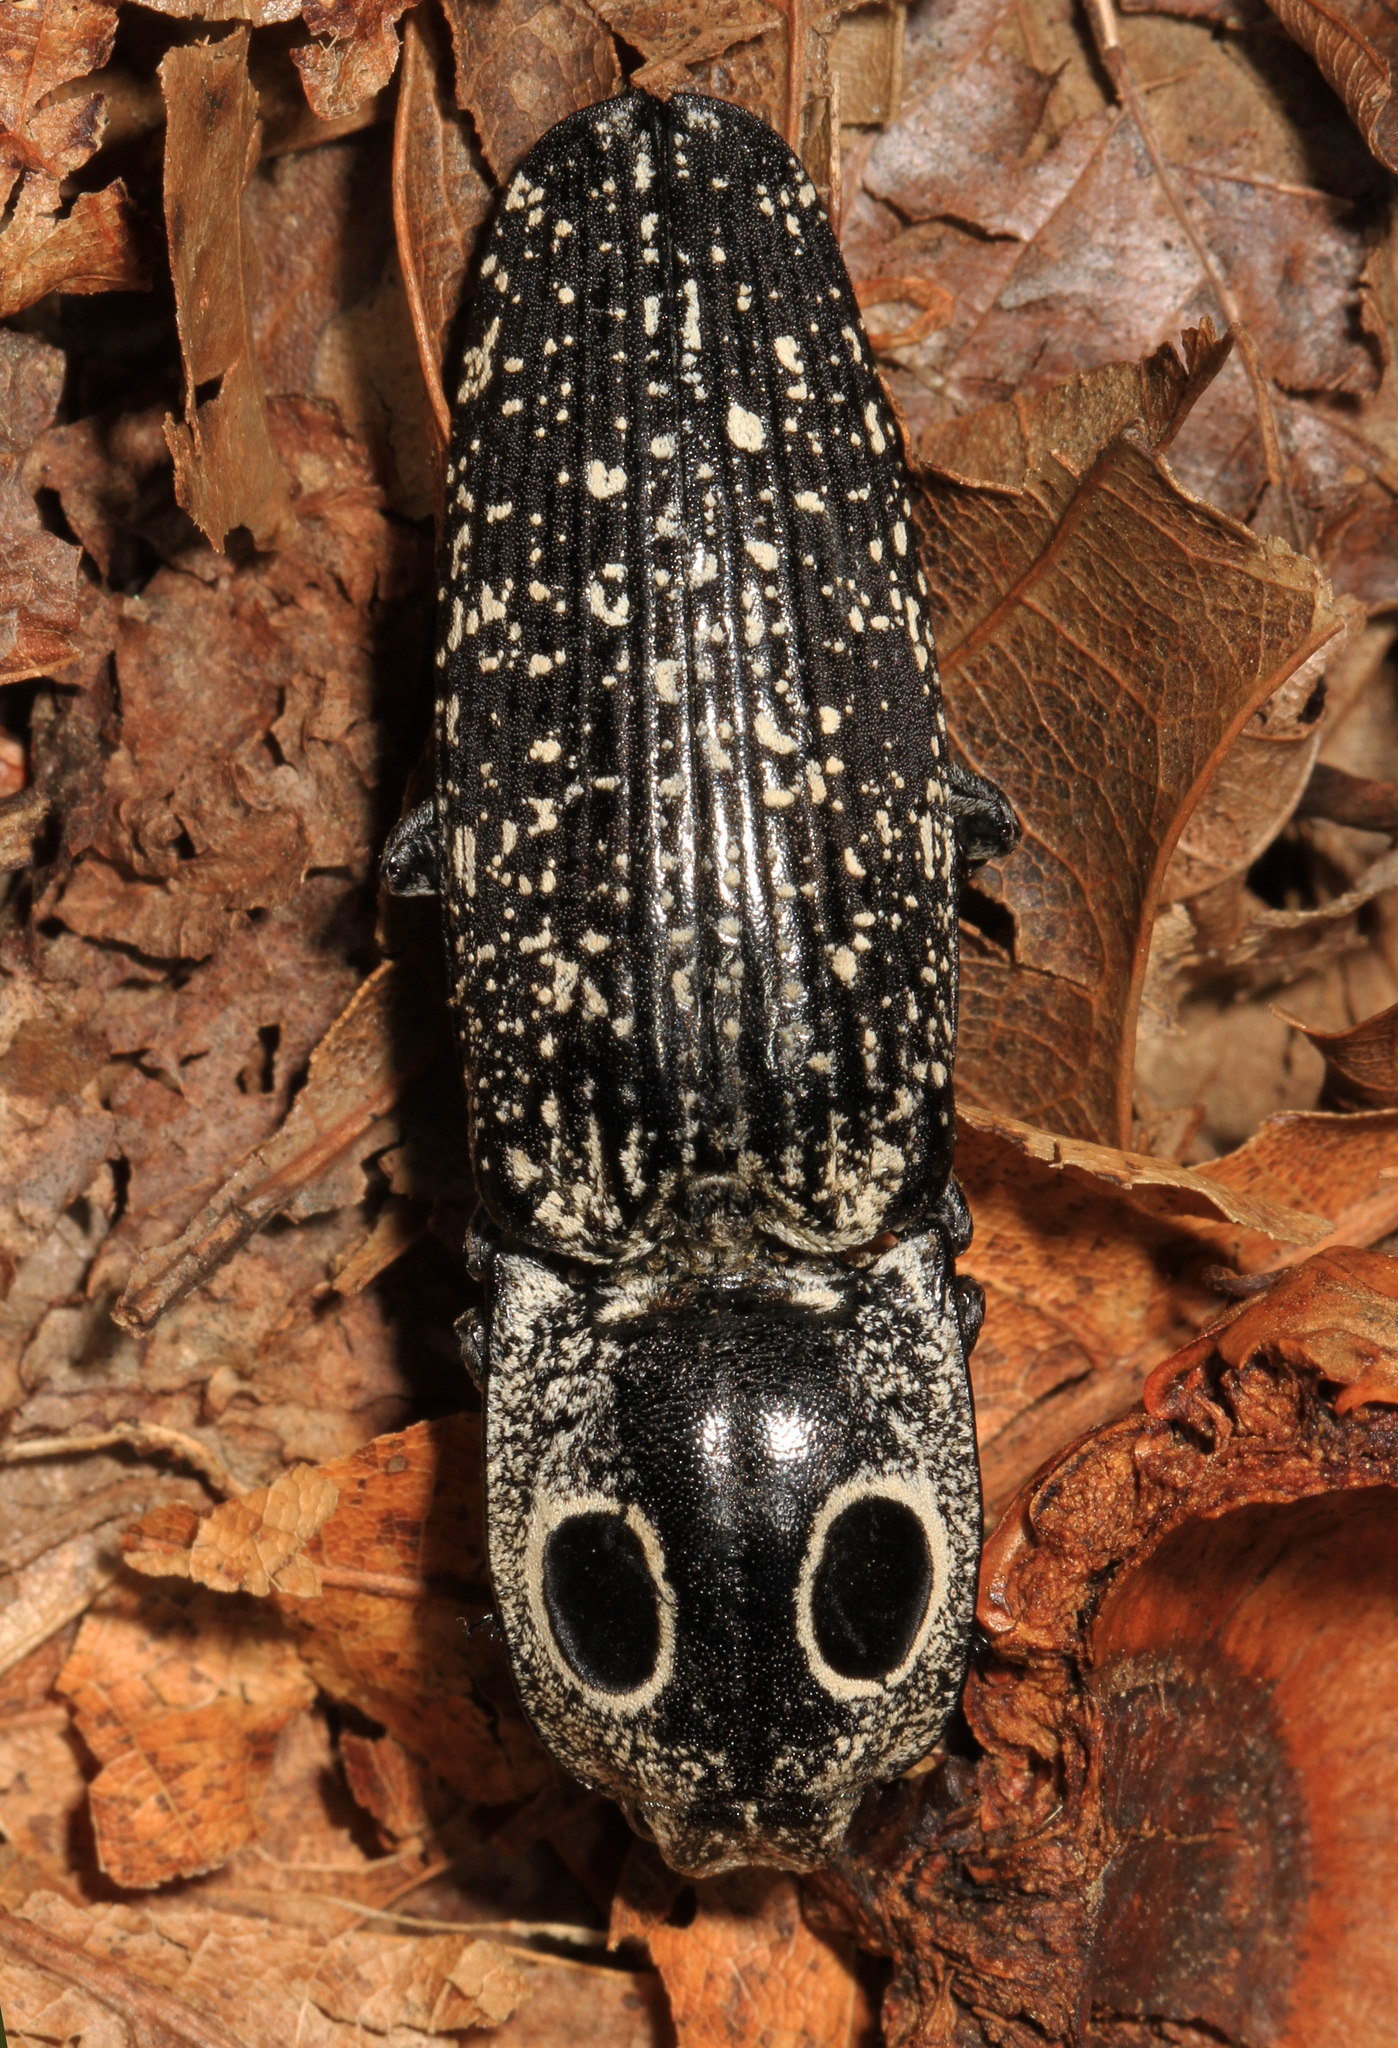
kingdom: Animalia
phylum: Arthropoda
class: Insecta
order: Coleoptera
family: Elateridae
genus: Alaus
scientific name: Alaus oculatus
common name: Eastern eyed click beetle
